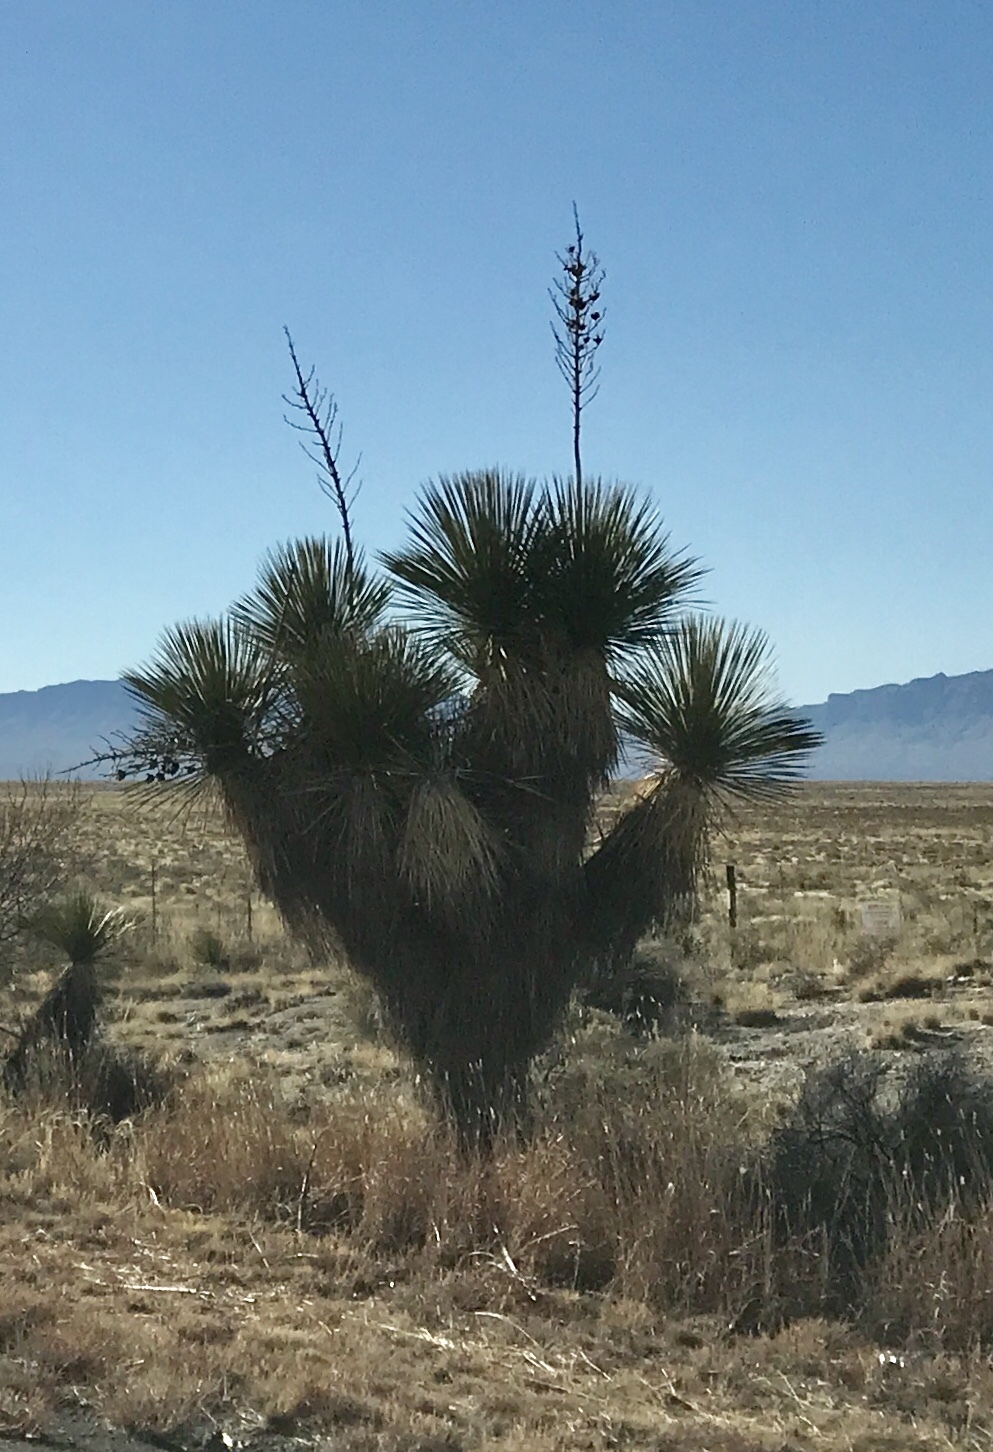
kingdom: Plantae
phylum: Tracheophyta
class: Liliopsida
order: Asparagales
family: Asparagaceae
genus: Yucca
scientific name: Yucca elata
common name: Palmella
